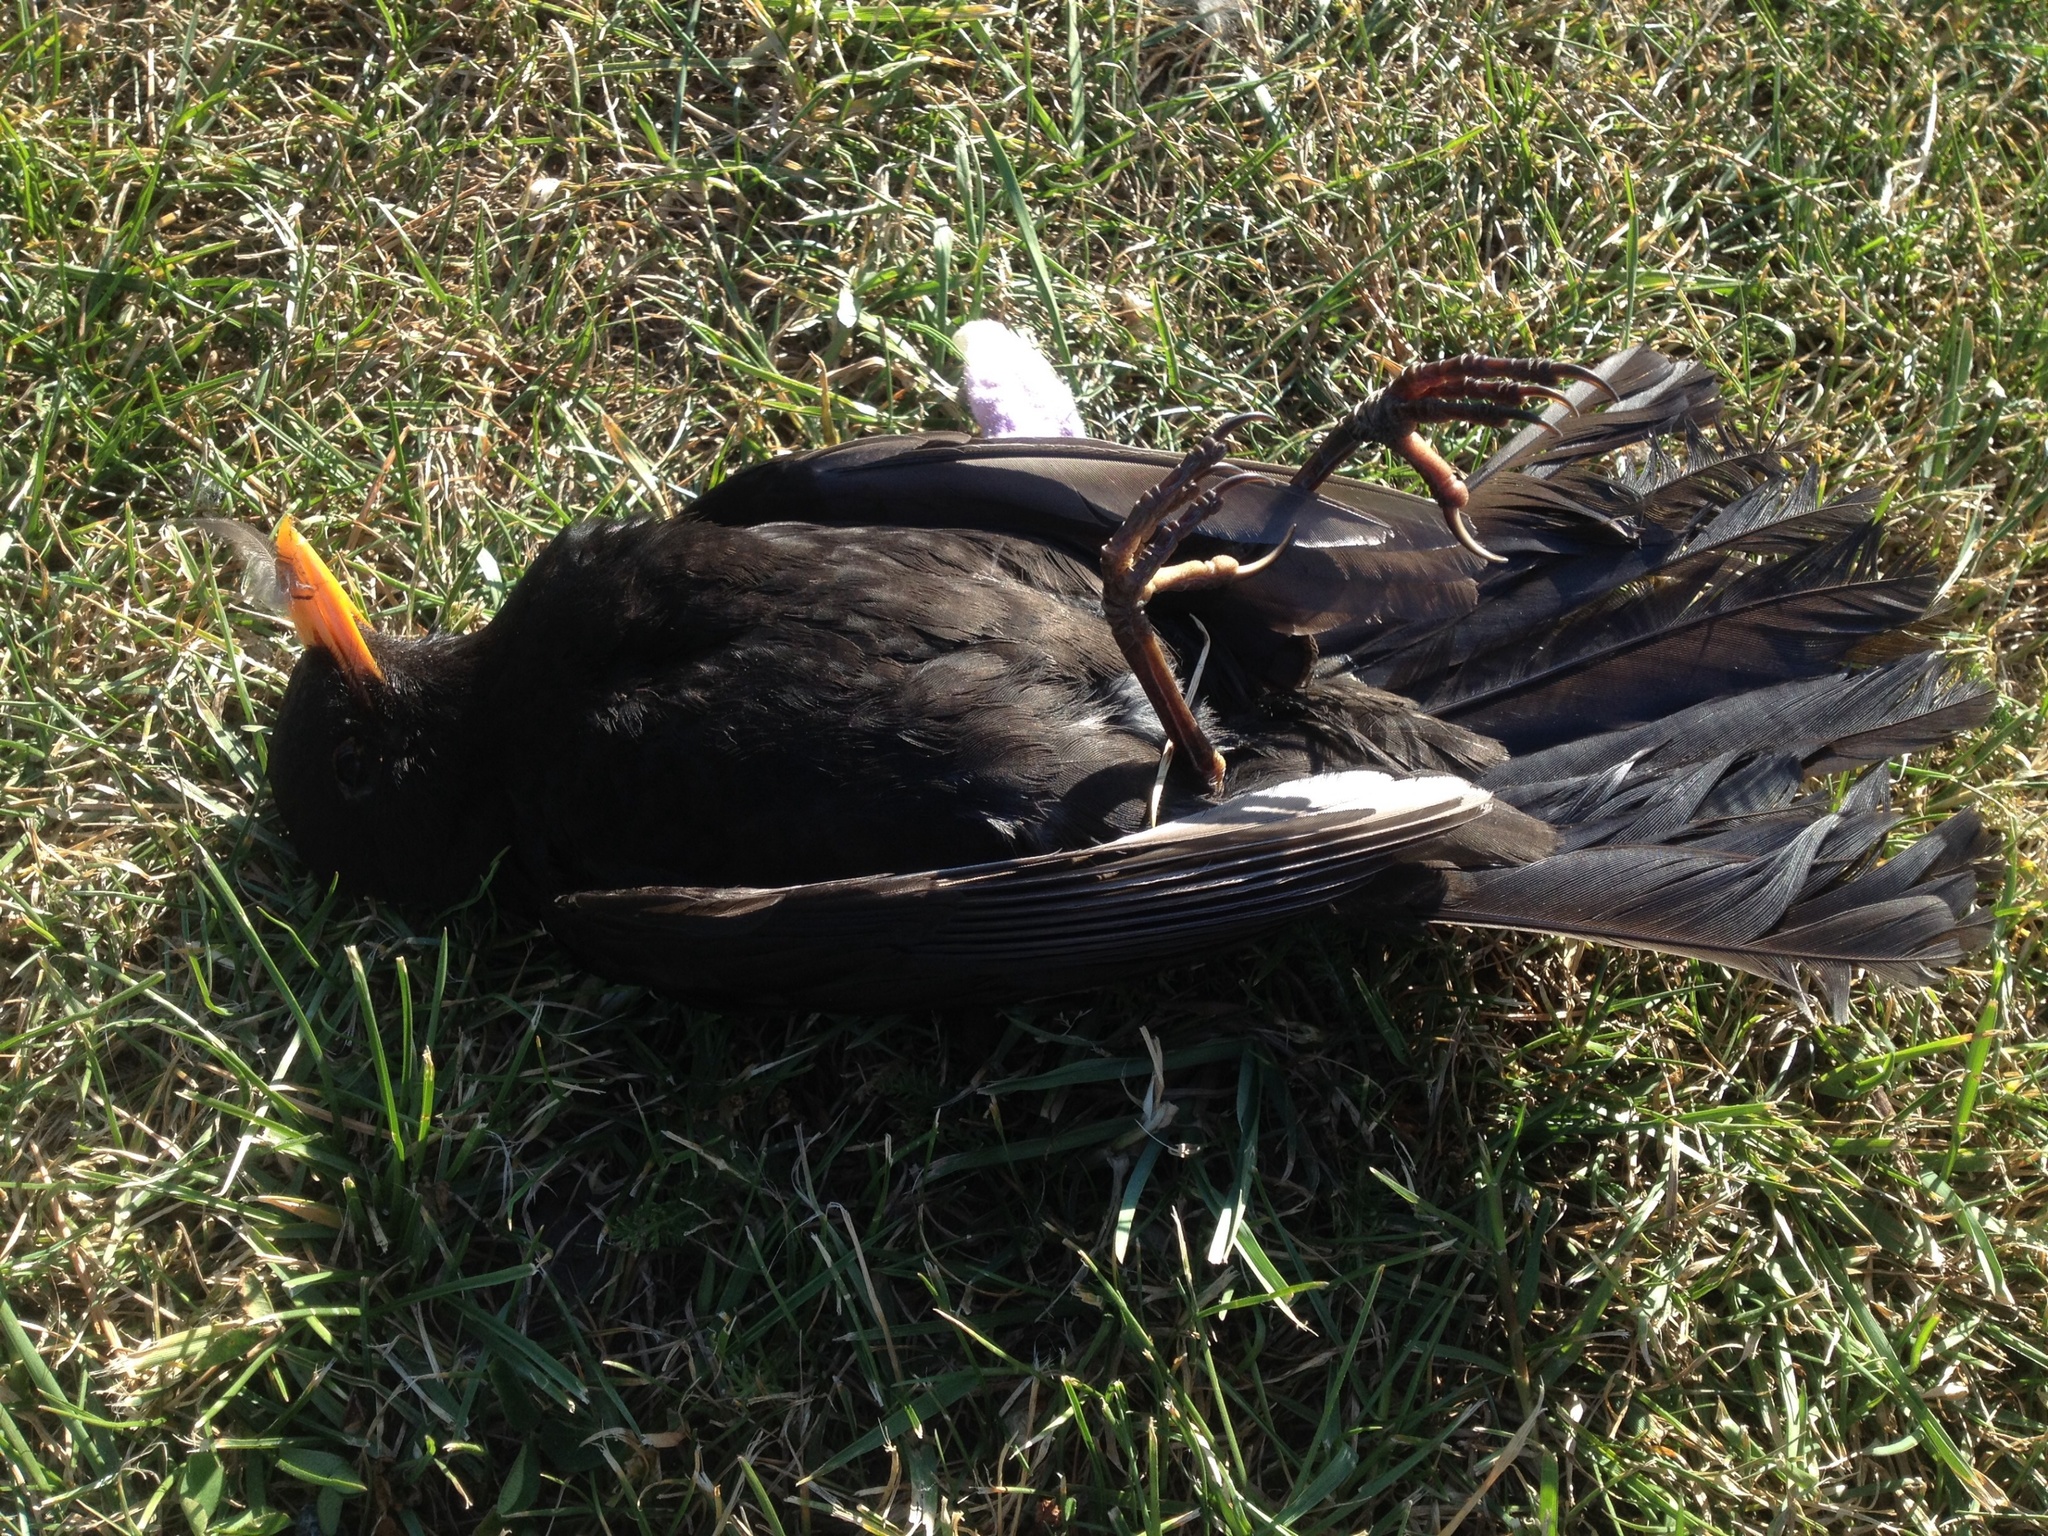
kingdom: Animalia
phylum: Chordata
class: Aves
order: Passeriformes
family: Turdidae
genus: Turdus
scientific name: Turdus merula
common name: Common blackbird
